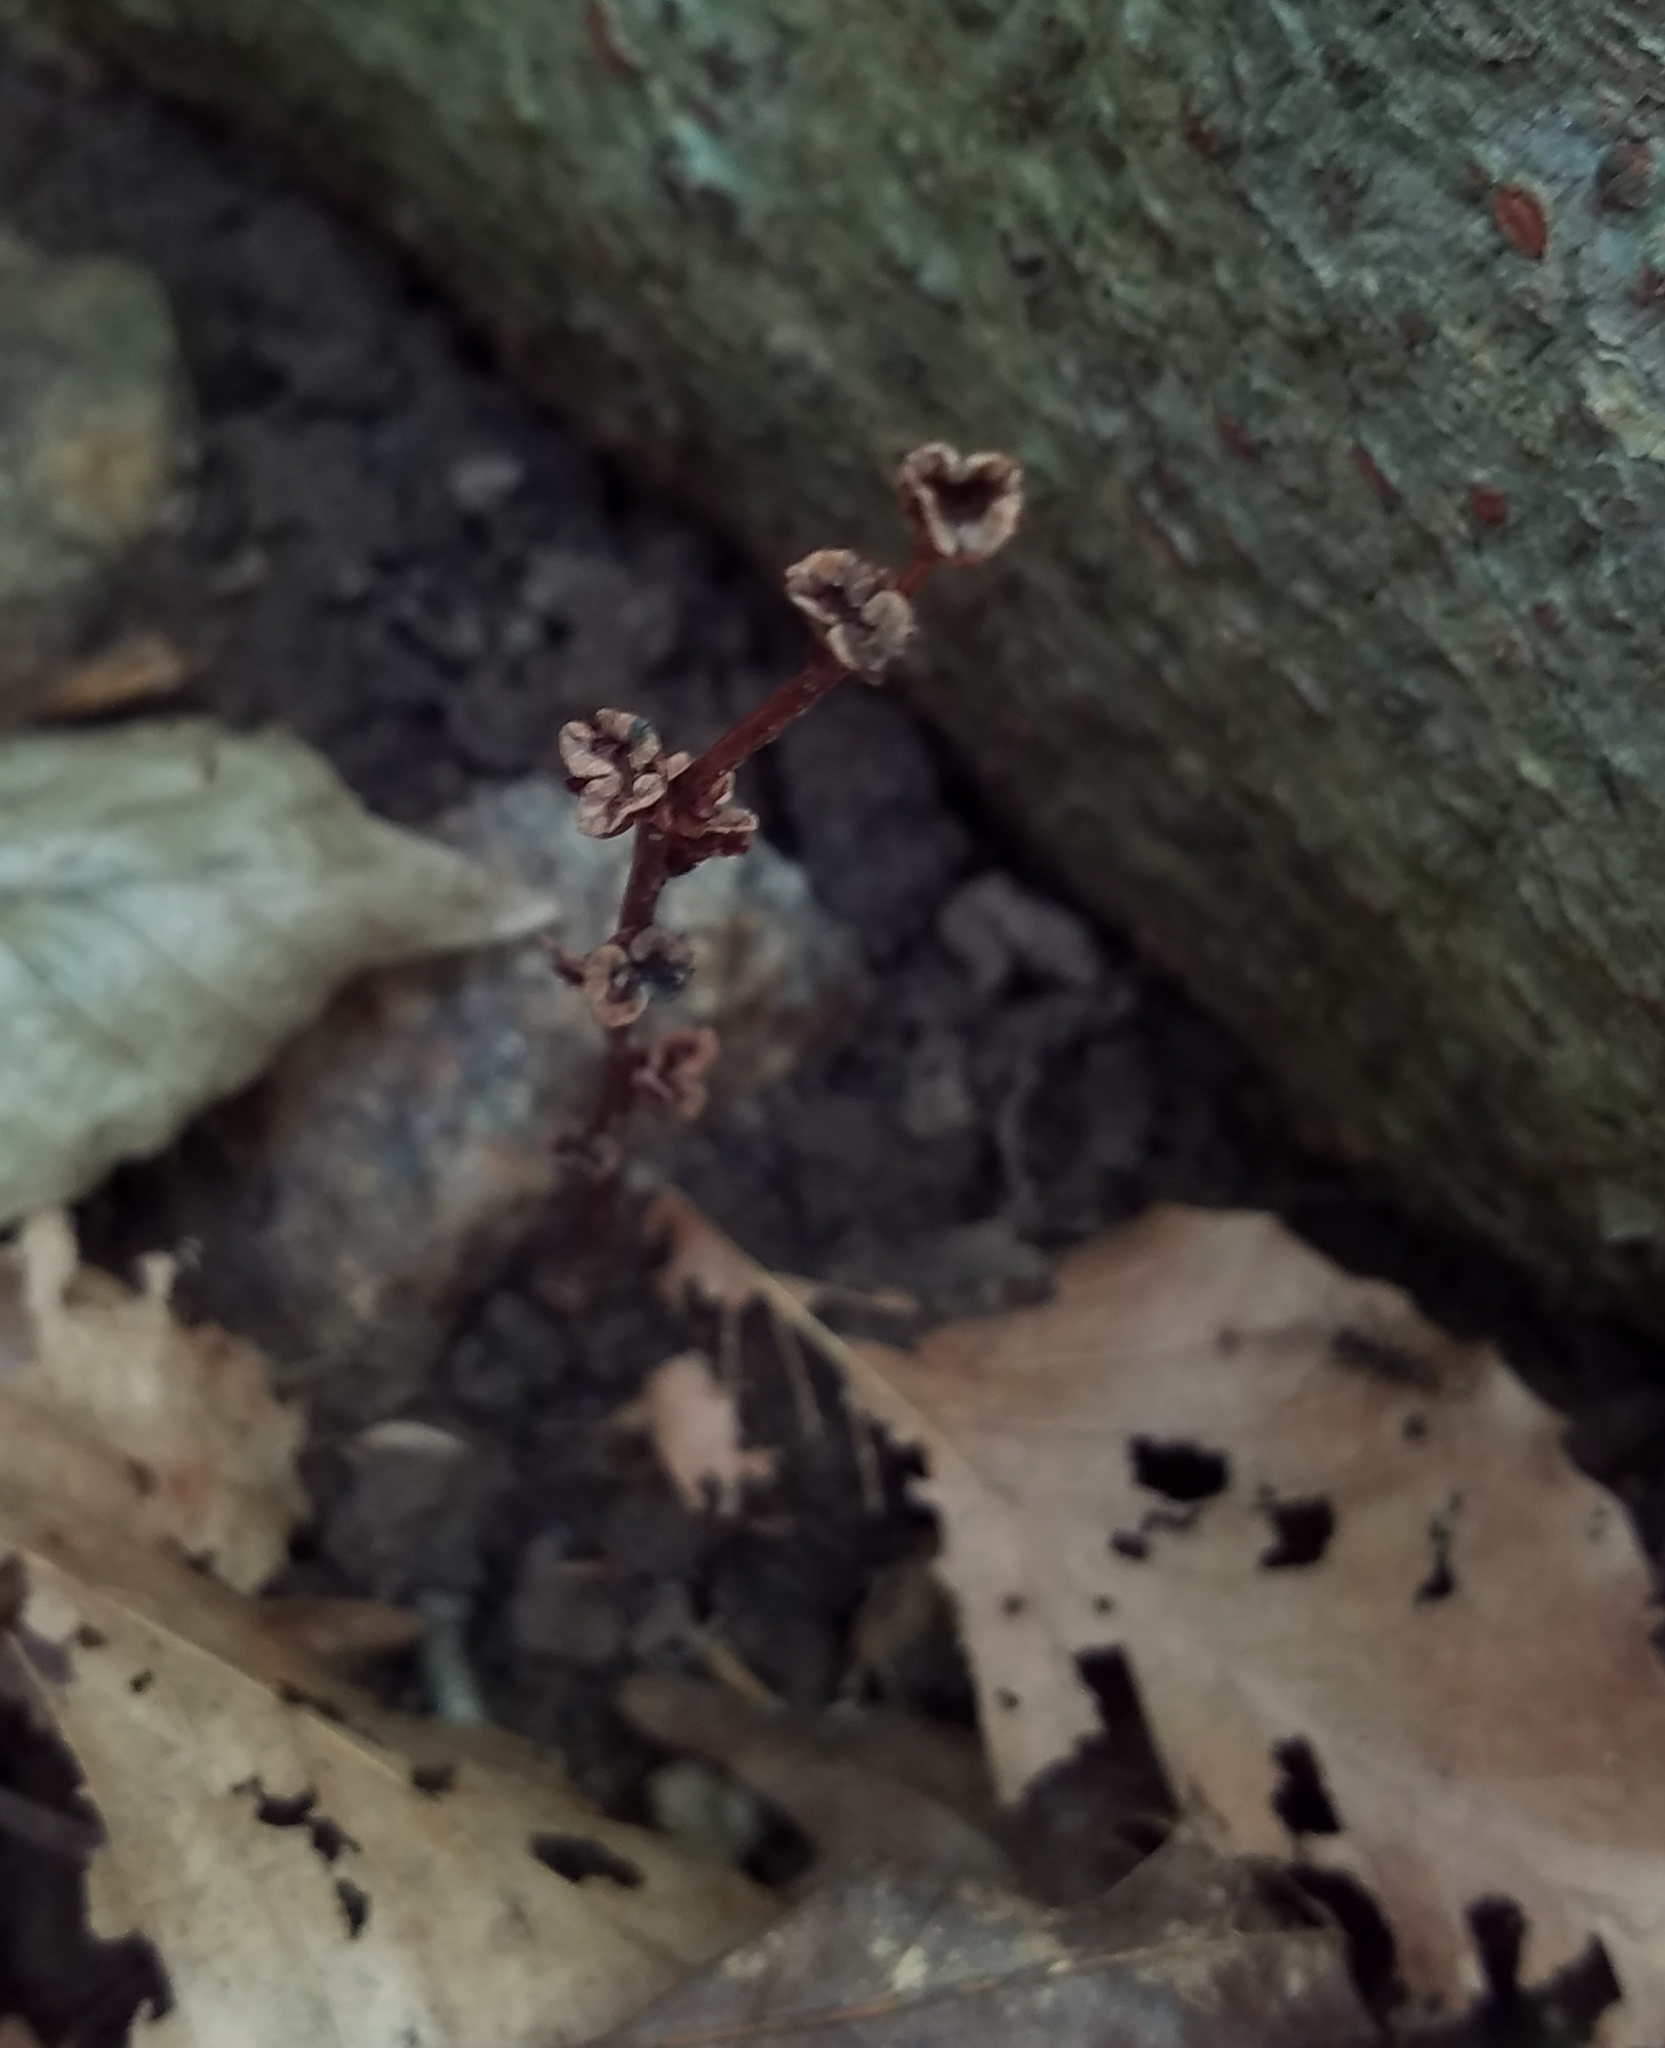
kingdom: Plantae
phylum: Tracheophyta
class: Magnoliopsida
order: Lamiales
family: Orobanchaceae
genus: Epifagus
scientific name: Epifagus virginiana
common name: Beechdrops
